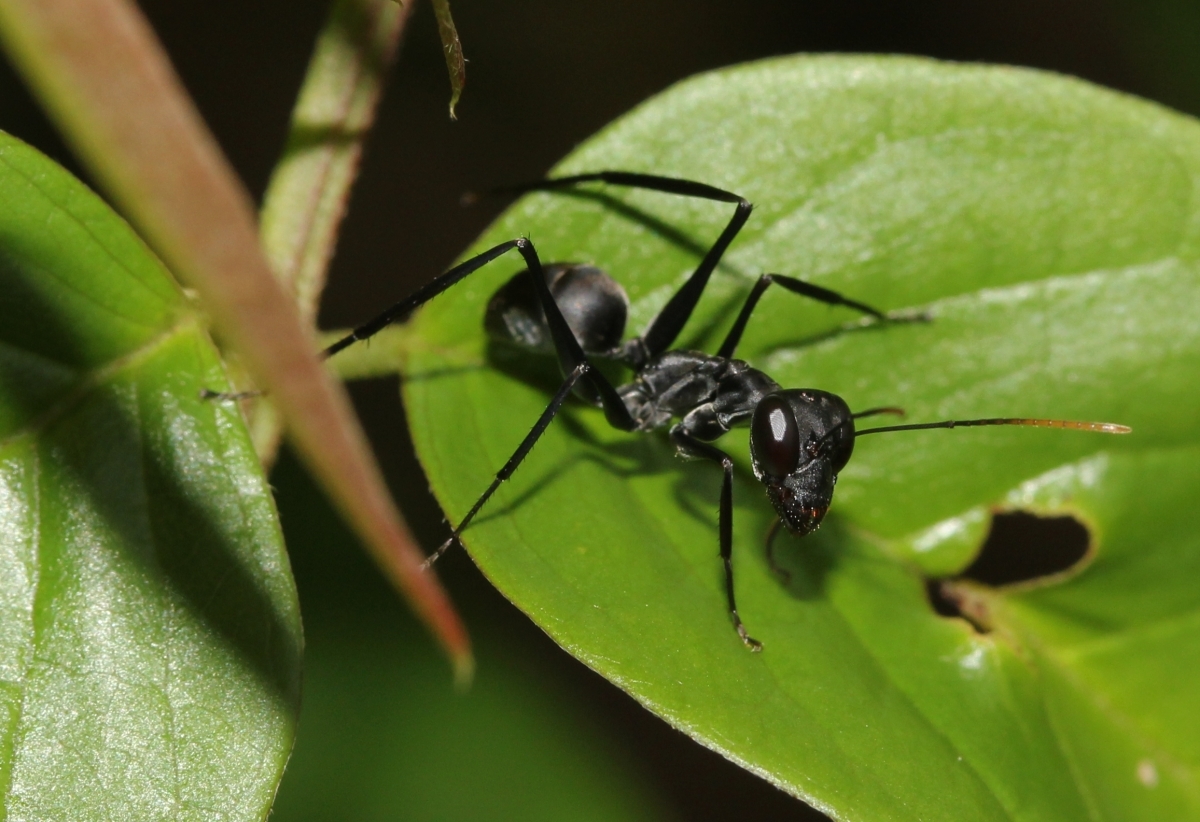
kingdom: Animalia
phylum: Arthropoda
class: Insecta
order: Hymenoptera
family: Formicidae
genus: Gigantiops
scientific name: Gigantiops destructor
